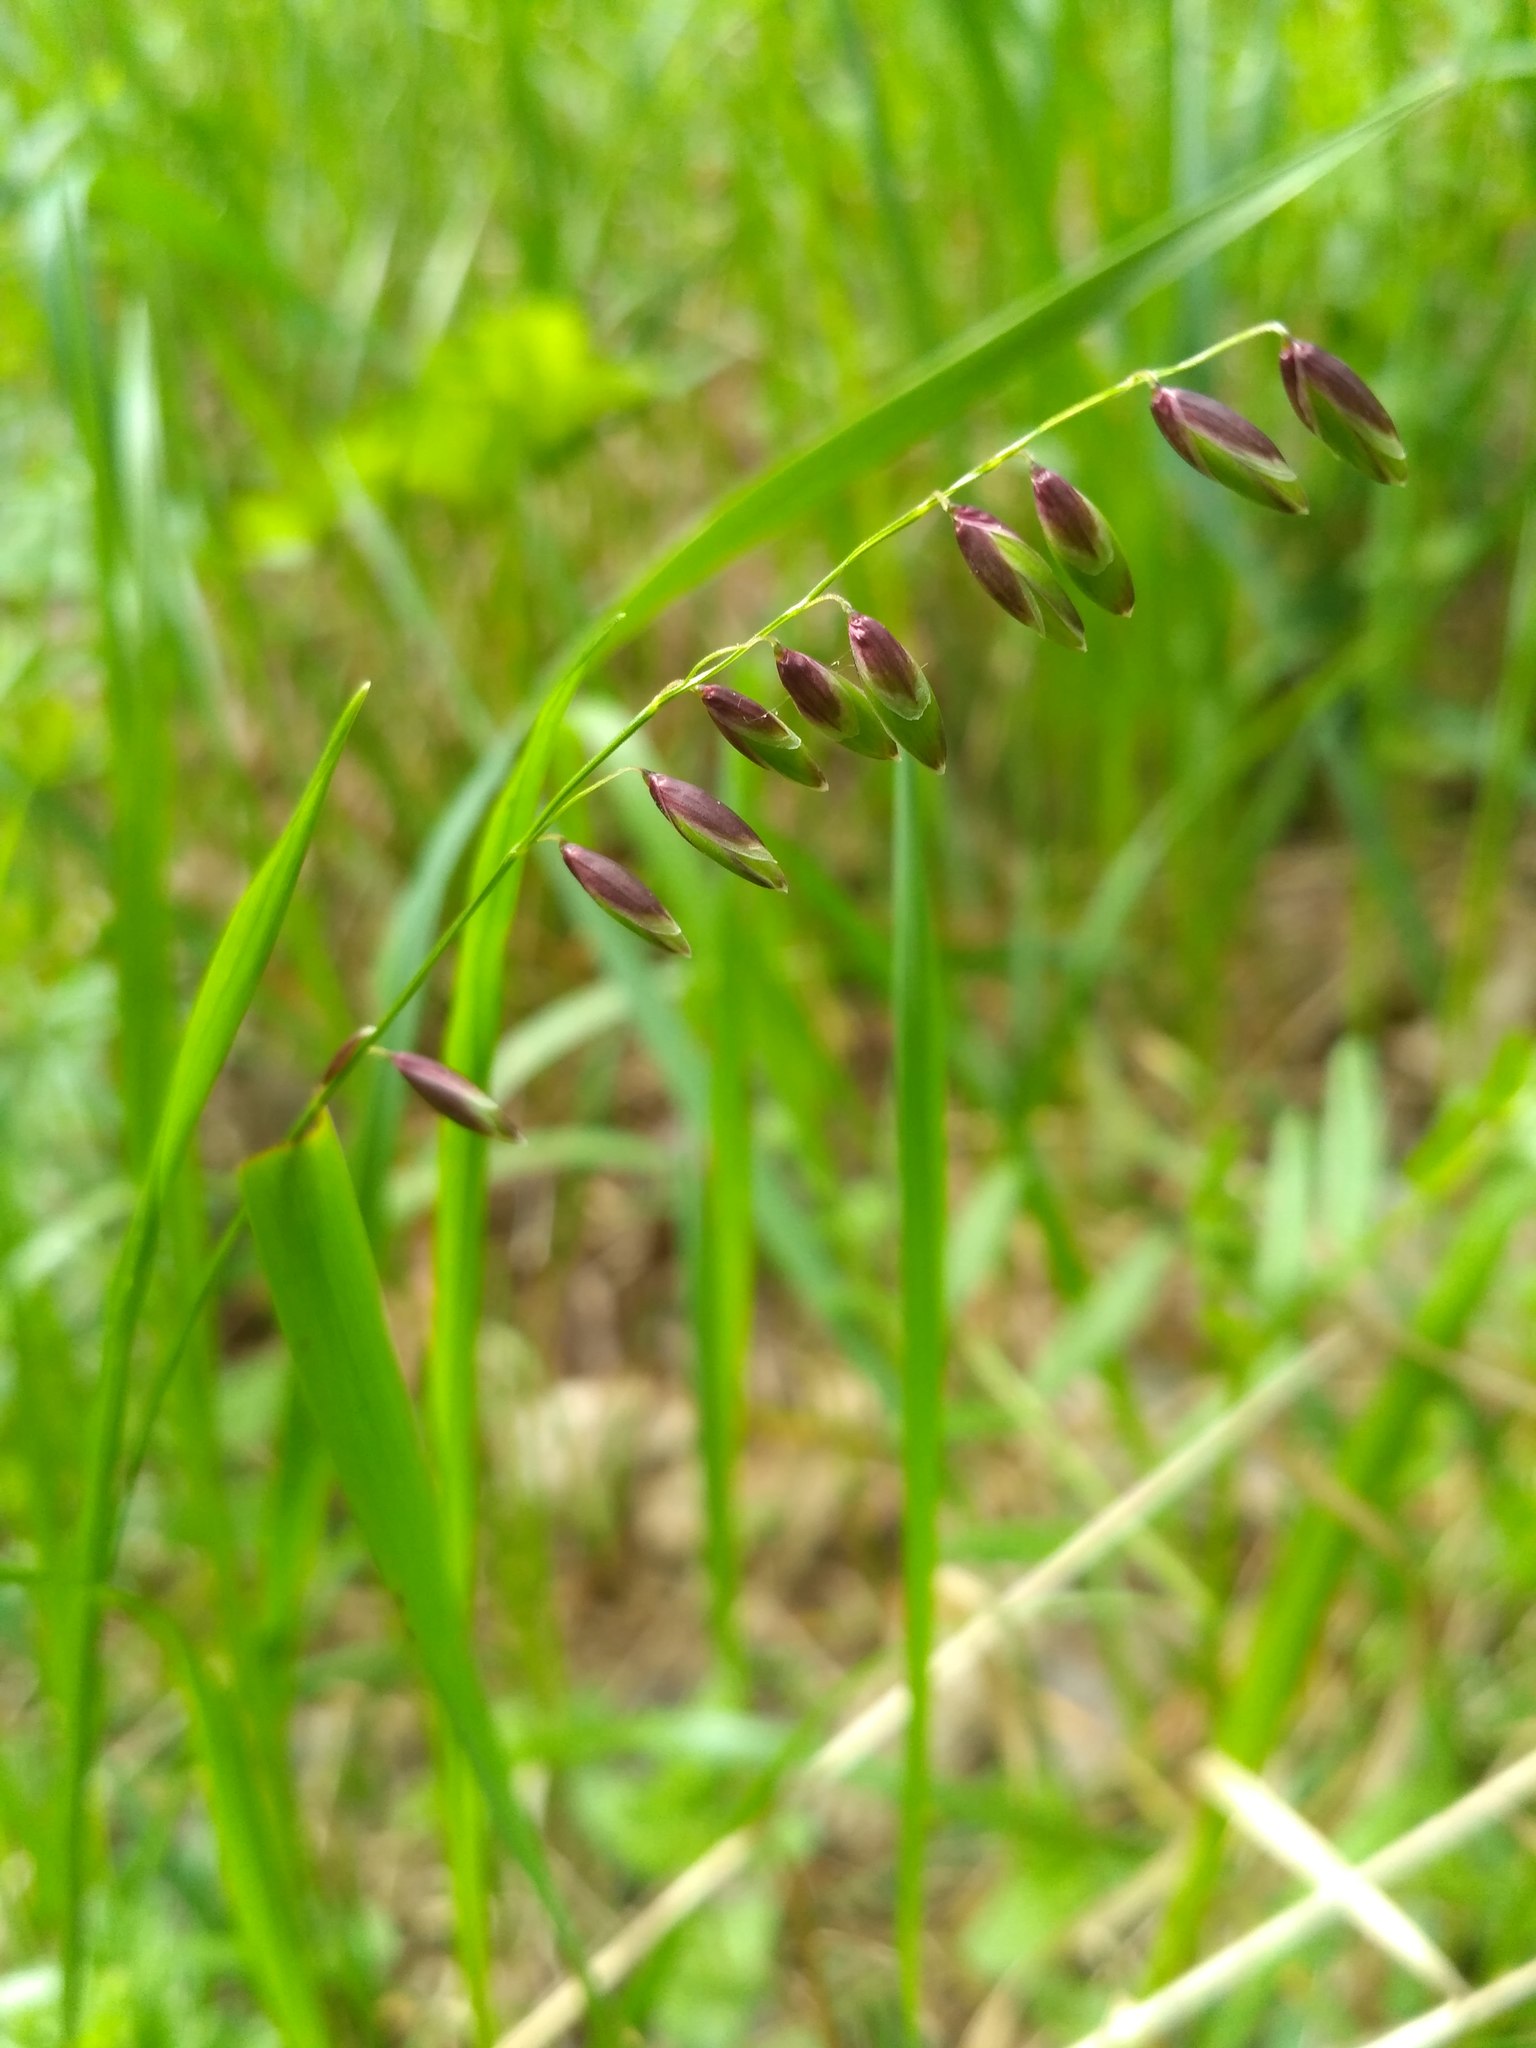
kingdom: Plantae
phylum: Tracheophyta
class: Liliopsida
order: Poales
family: Poaceae
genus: Melica
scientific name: Melica nutans
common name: Mountain melick
